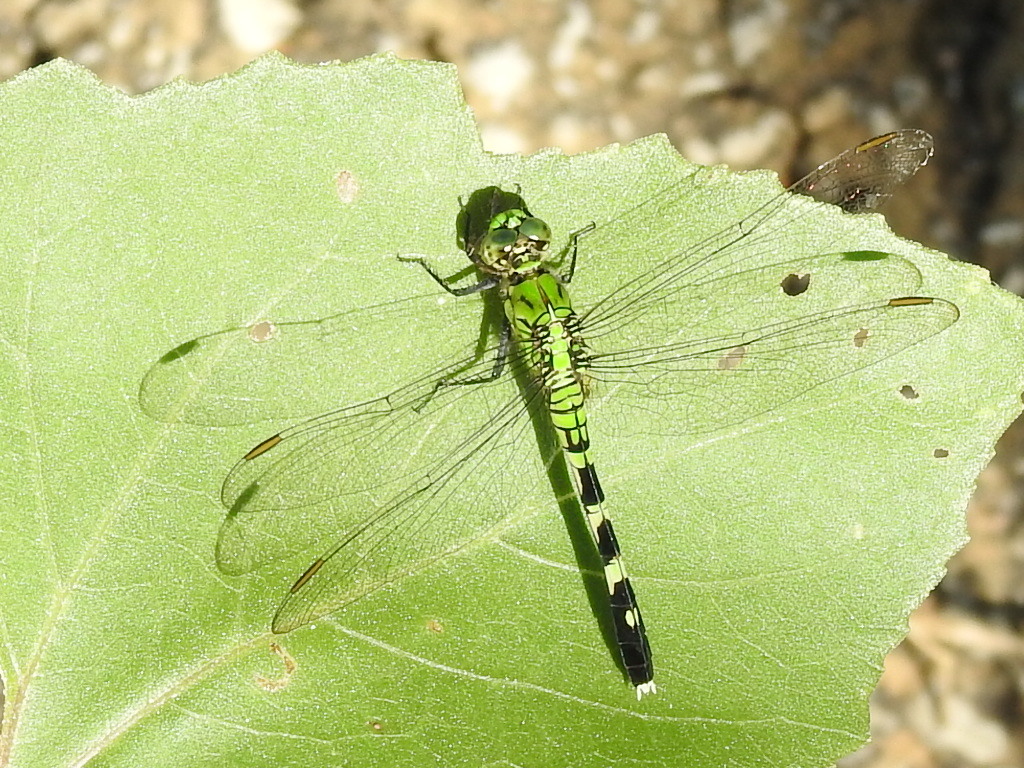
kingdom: Animalia
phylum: Arthropoda
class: Insecta
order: Odonata
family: Libellulidae
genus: Erythemis
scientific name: Erythemis simplicicollis
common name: Eastern pondhawk
